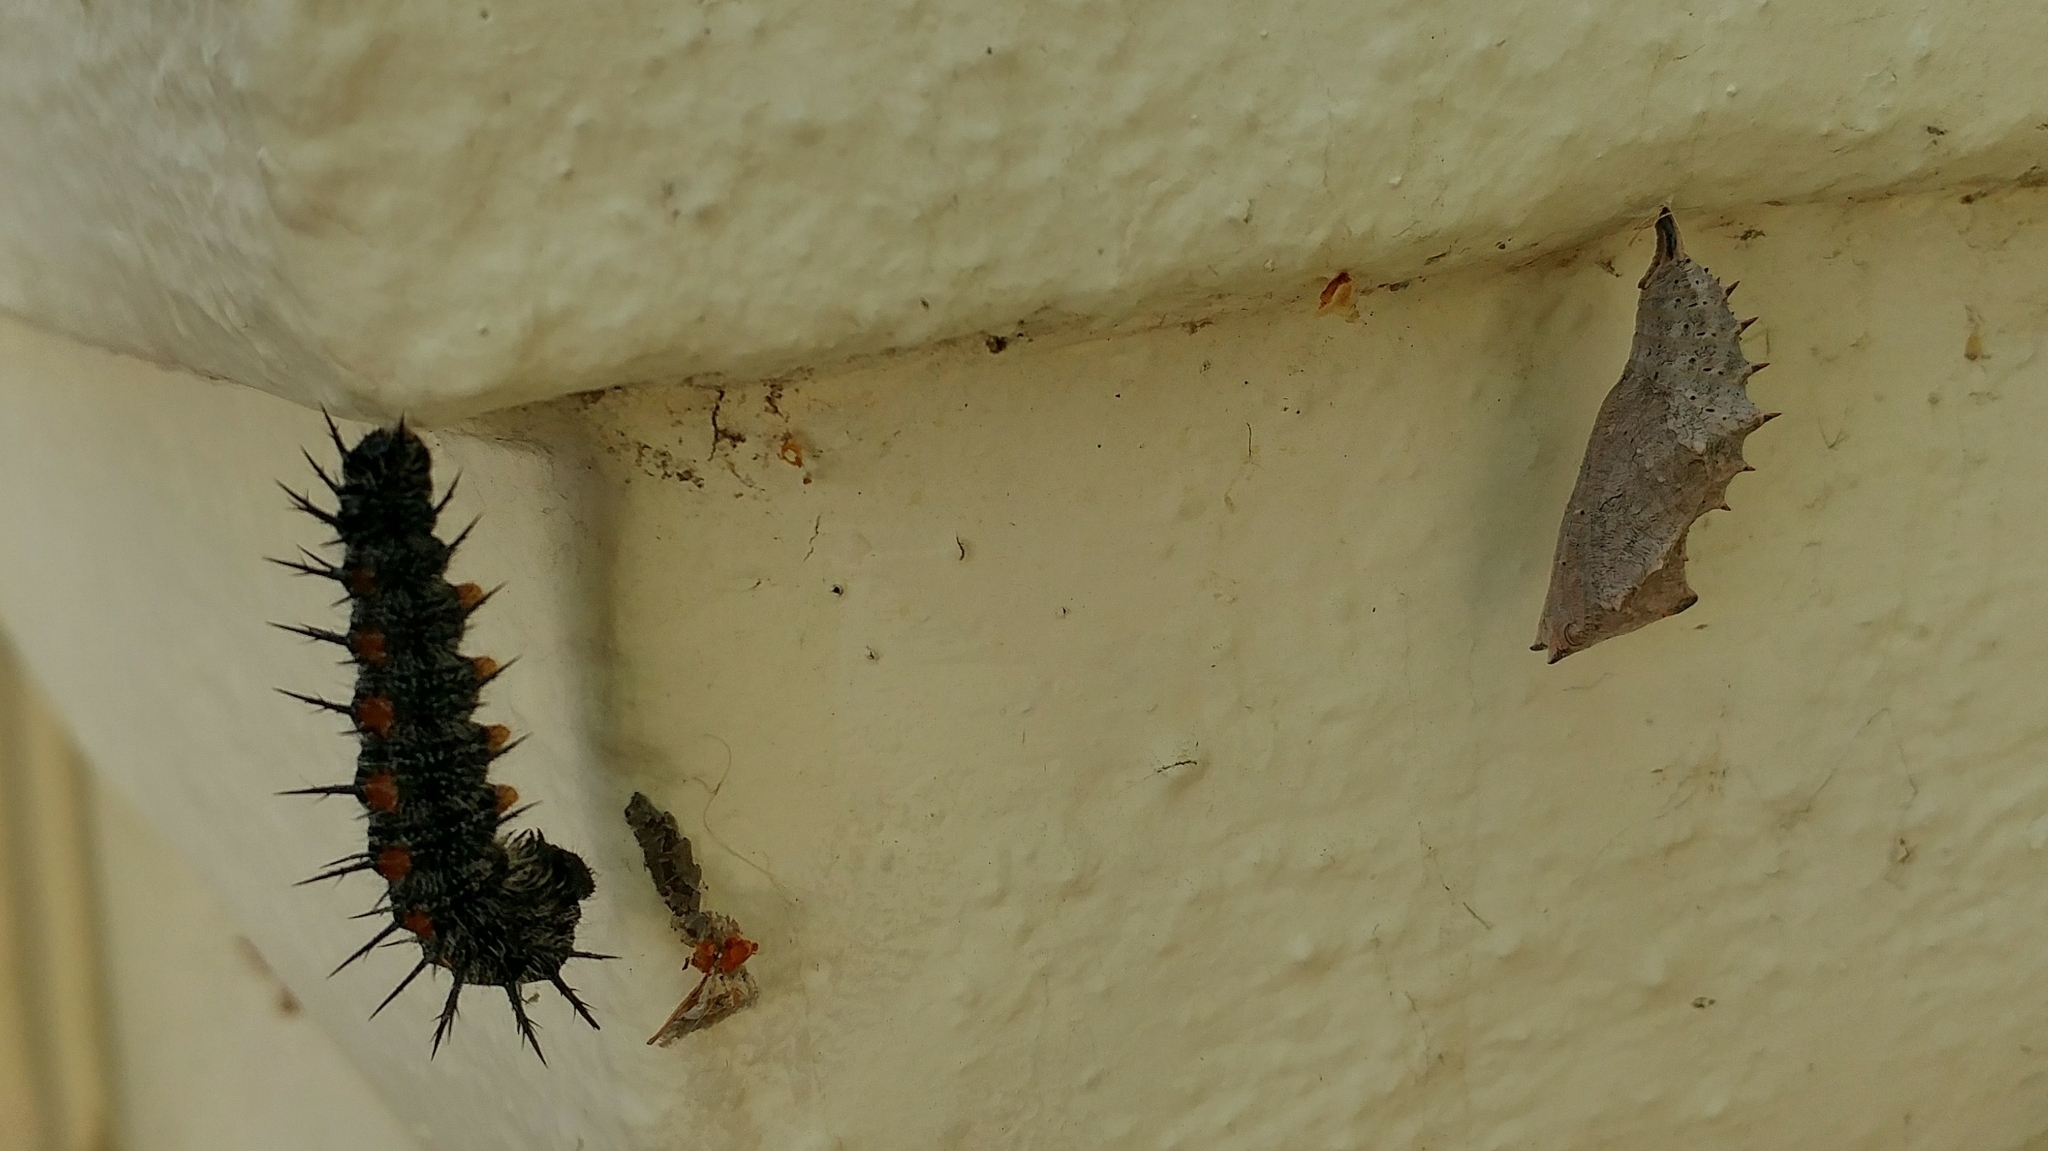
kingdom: Animalia
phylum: Arthropoda
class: Insecta
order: Lepidoptera
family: Nymphalidae
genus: Nymphalis
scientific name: Nymphalis antiopa
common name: Camberwell beauty
